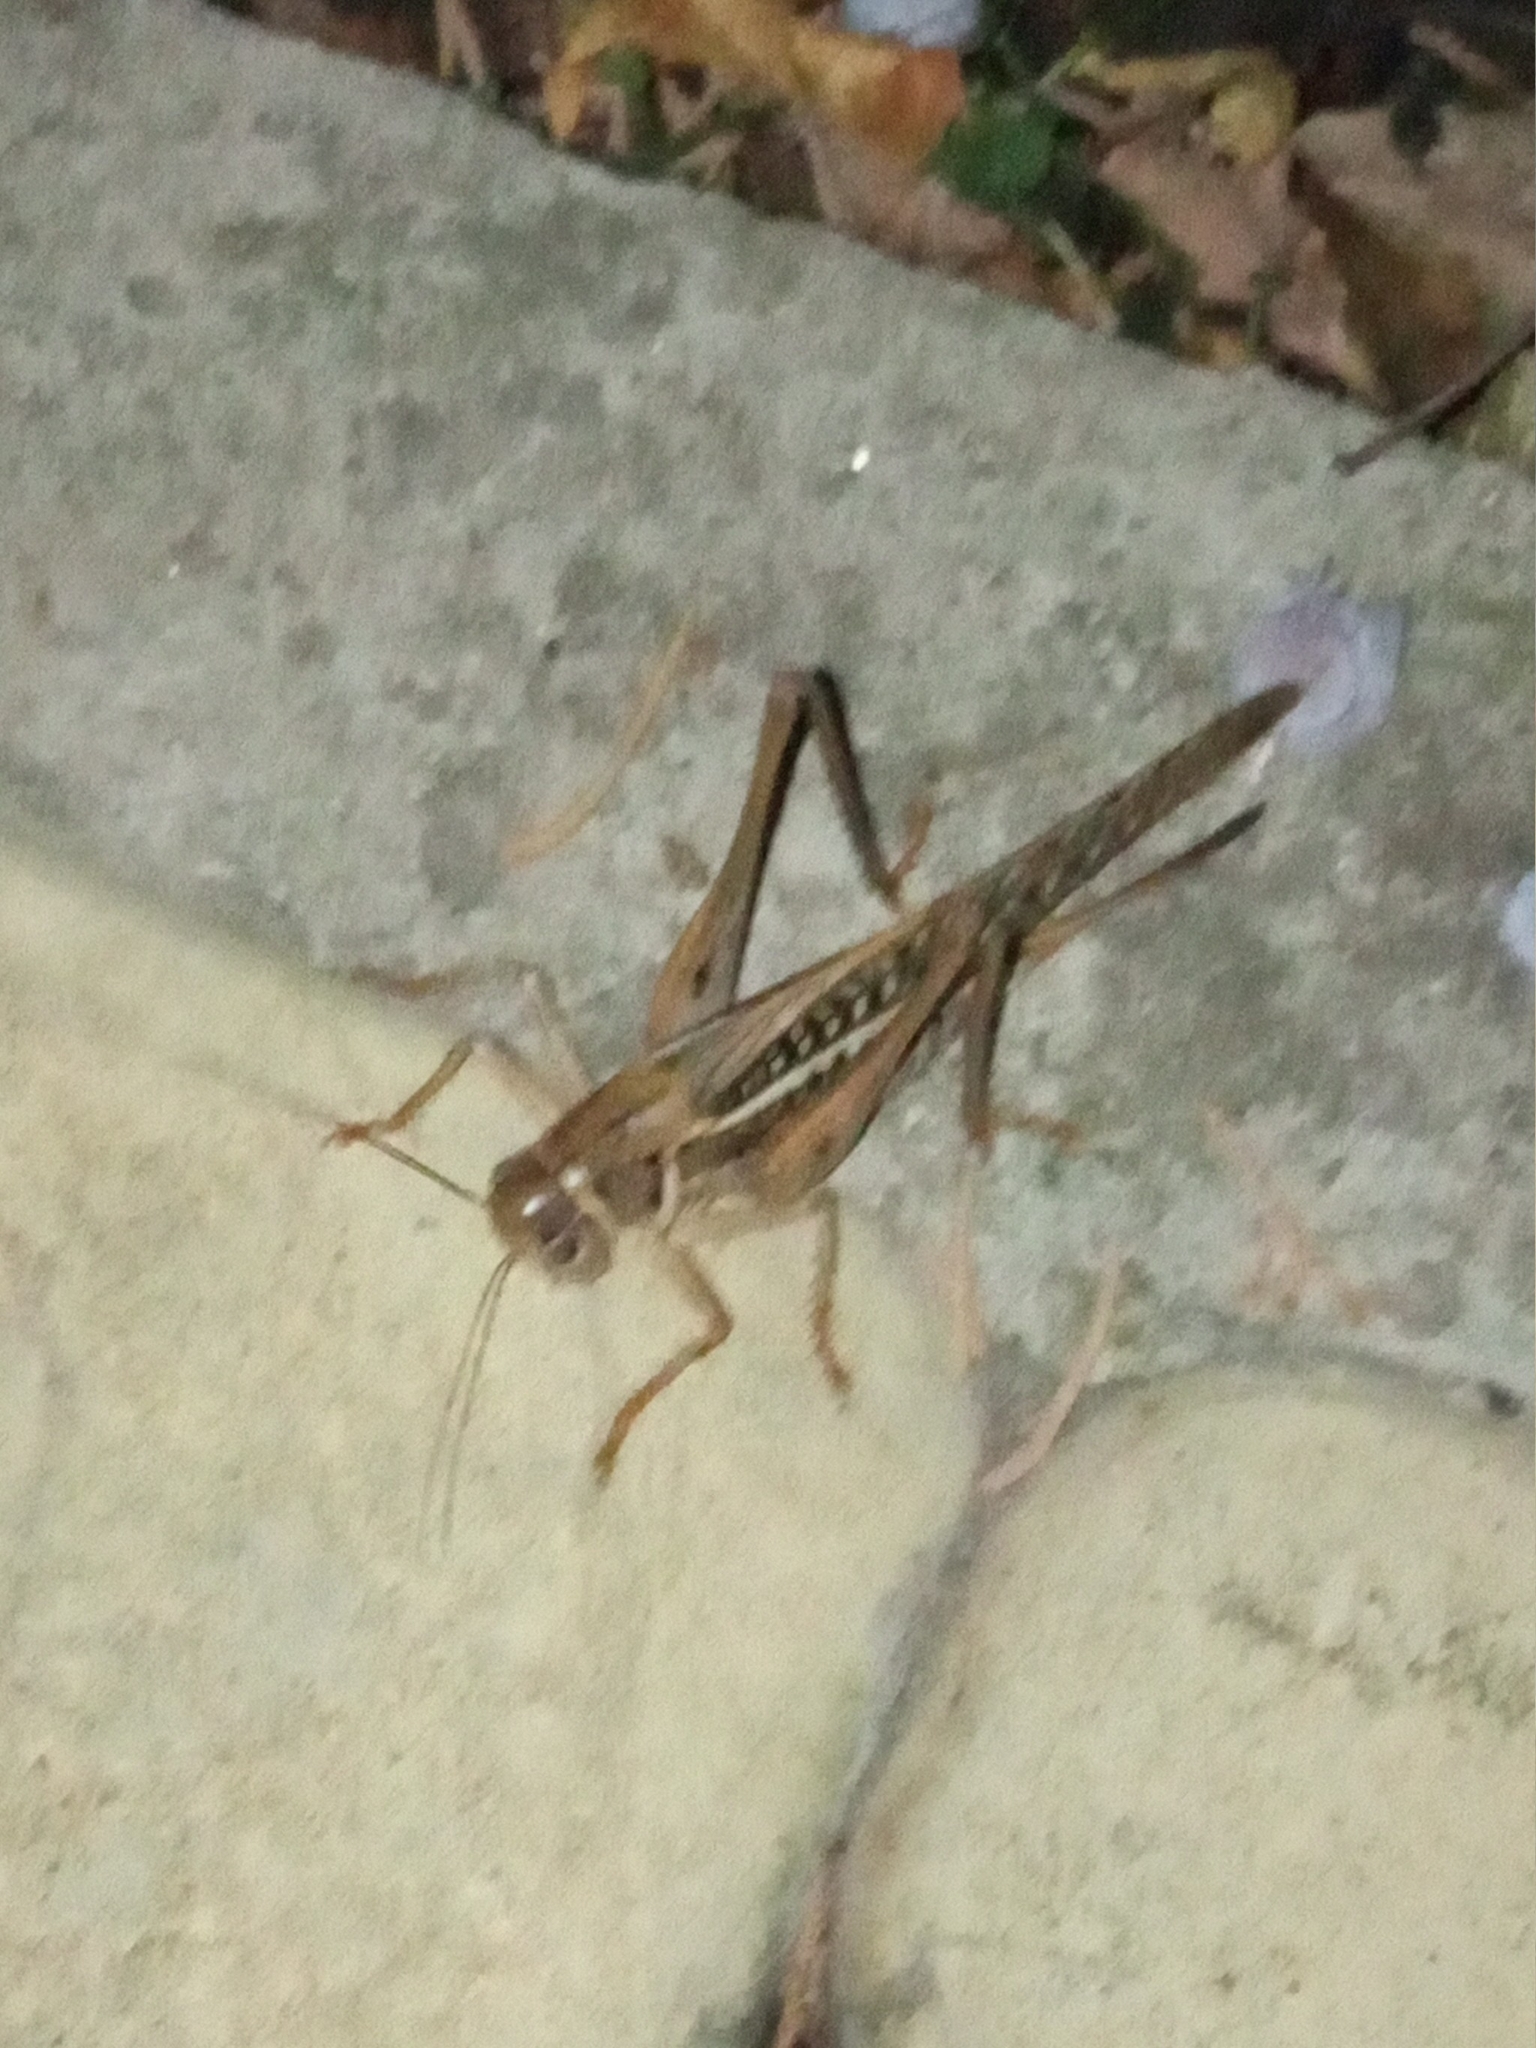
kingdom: Animalia
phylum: Arthropoda
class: Insecta
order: Orthoptera
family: Tettigoniidae
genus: Decticus
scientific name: Decticus albifrons
